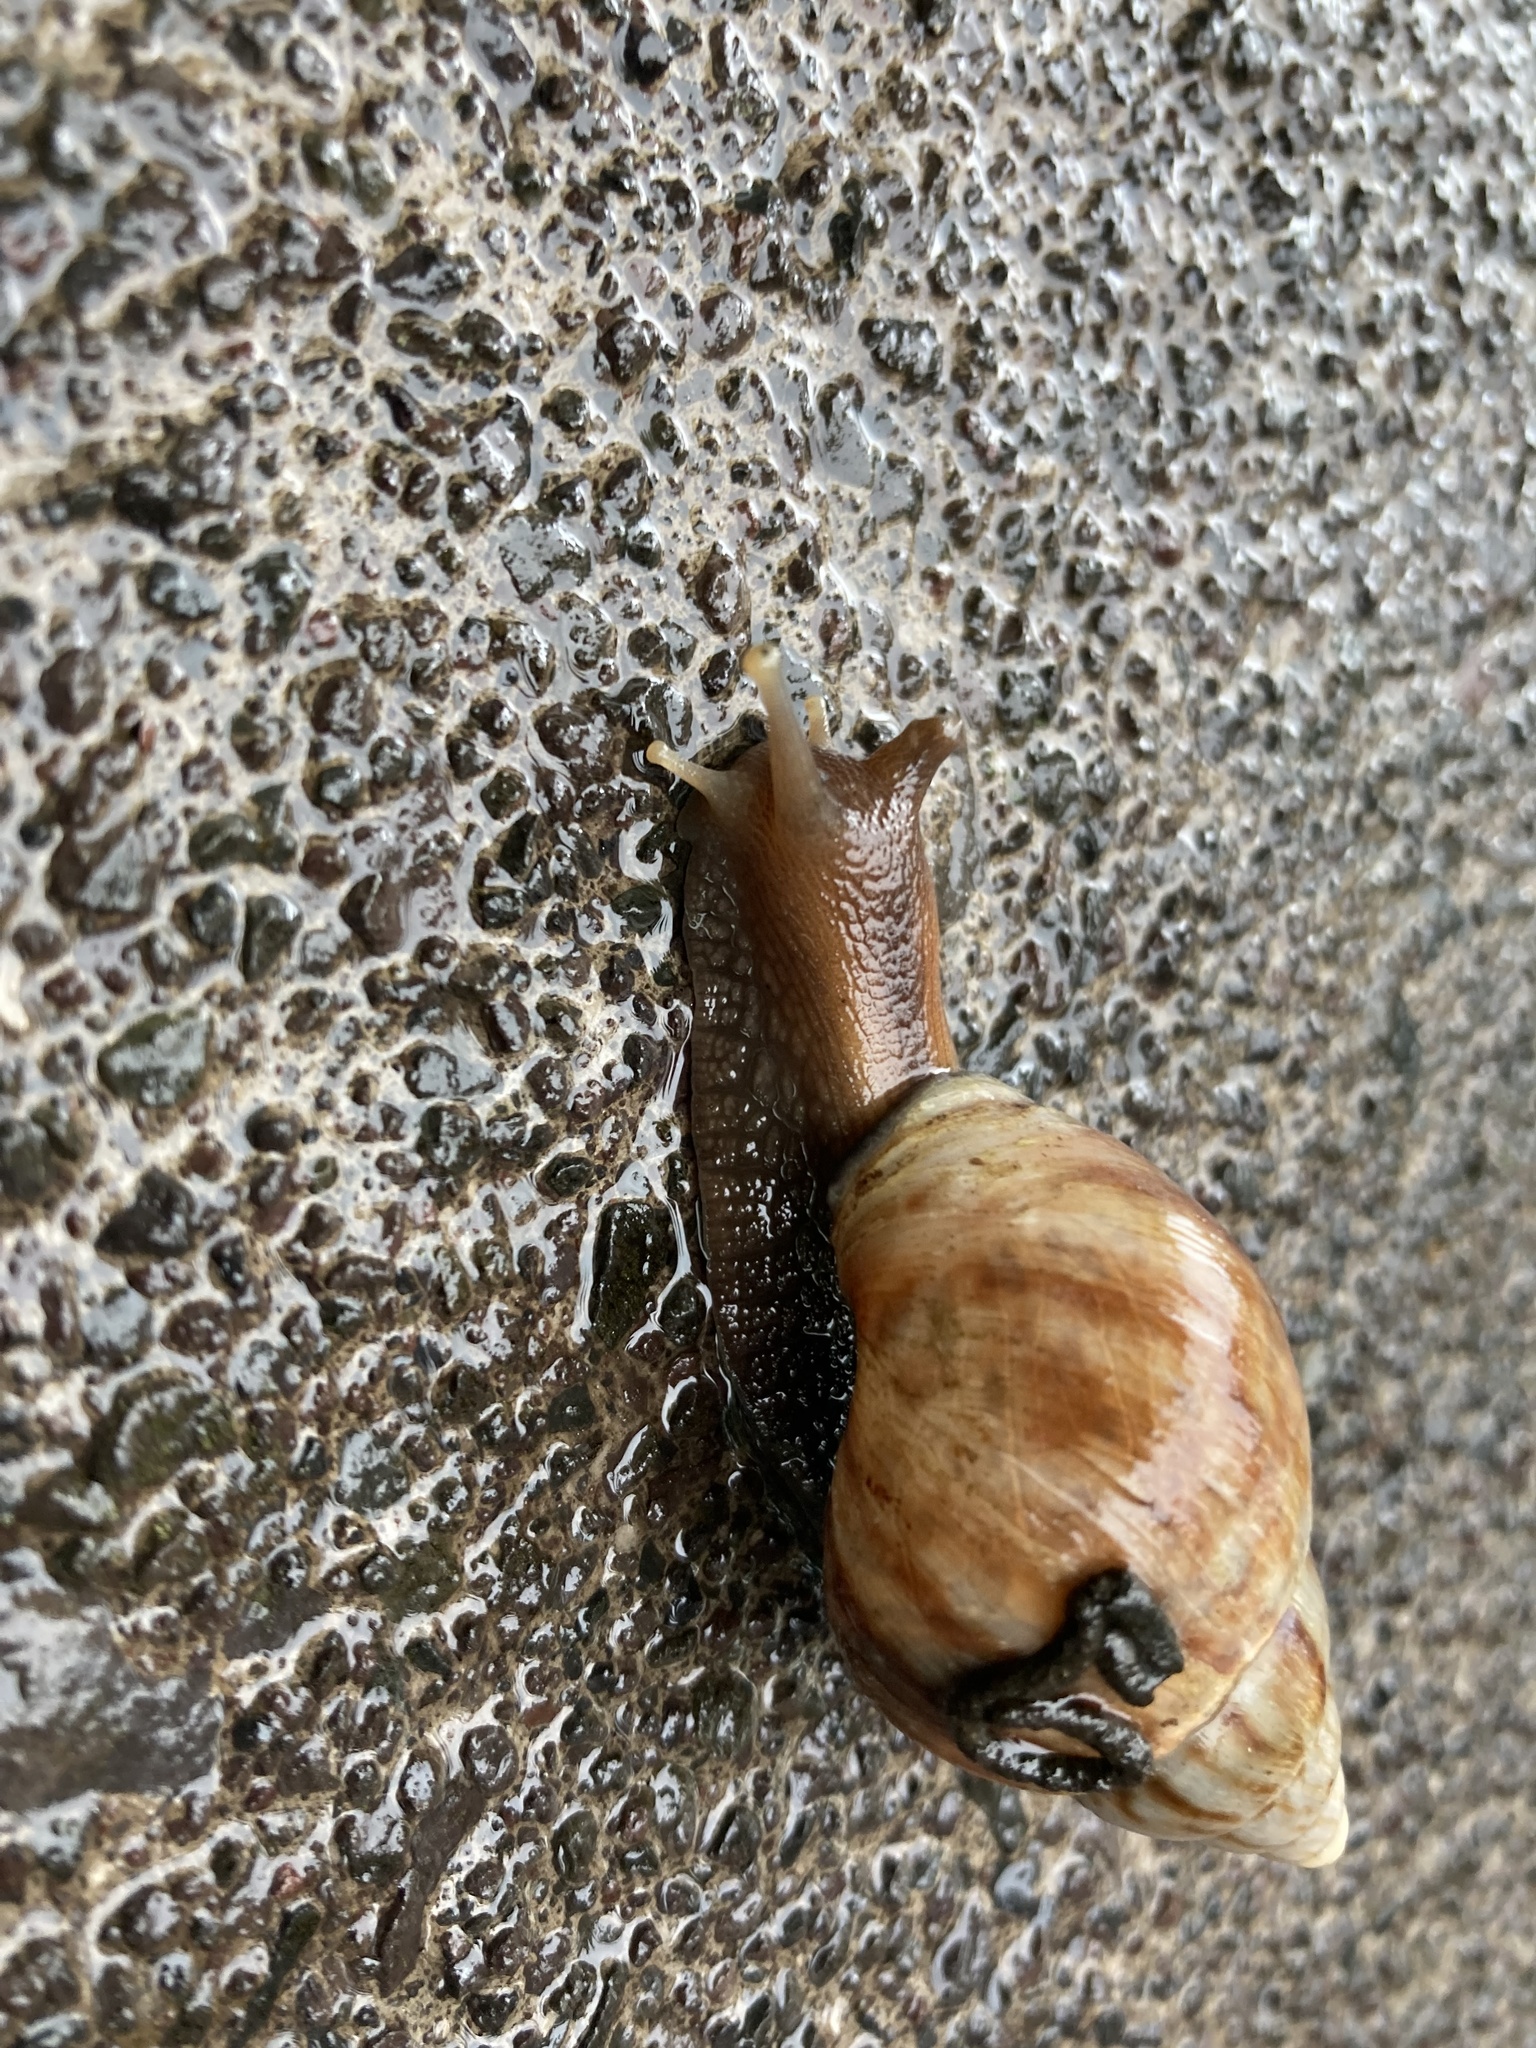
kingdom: Animalia
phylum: Mollusca
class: Gastropoda
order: Stylommatophora
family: Achatinidae
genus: Lissachatina
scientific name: Lissachatina fulica
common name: Giant african snail
